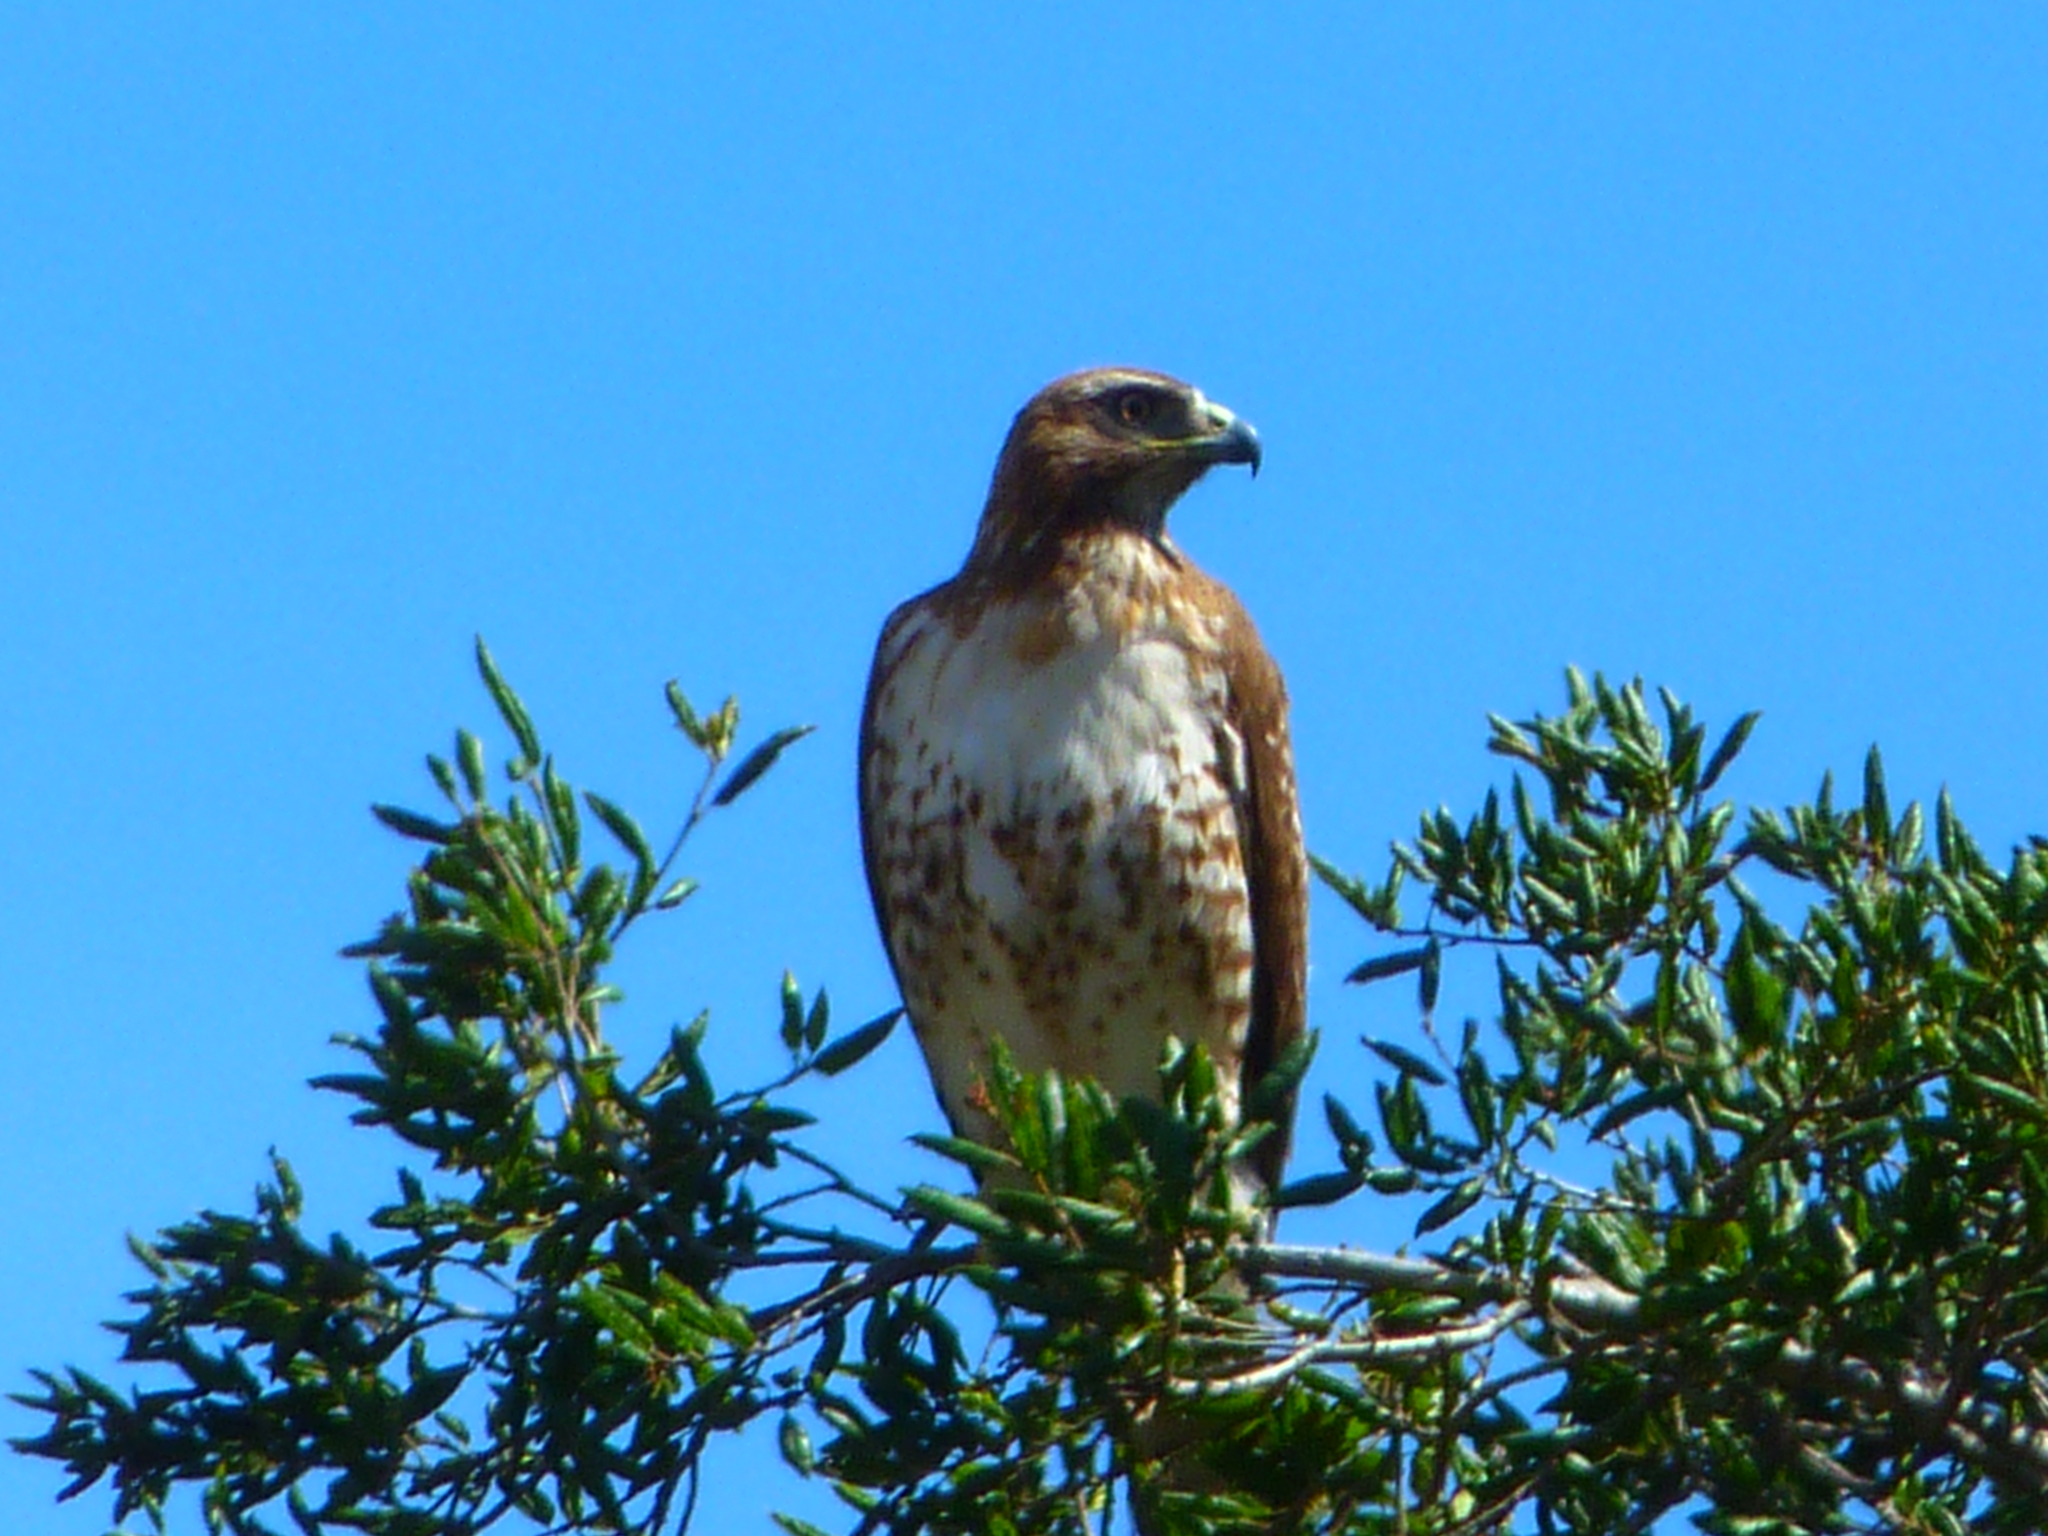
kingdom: Animalia
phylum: Chordata
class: Aves
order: Accipitriformes
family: Accipitridae
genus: Buteo
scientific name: Buteo jamaicensis
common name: Red-tailed hawk
